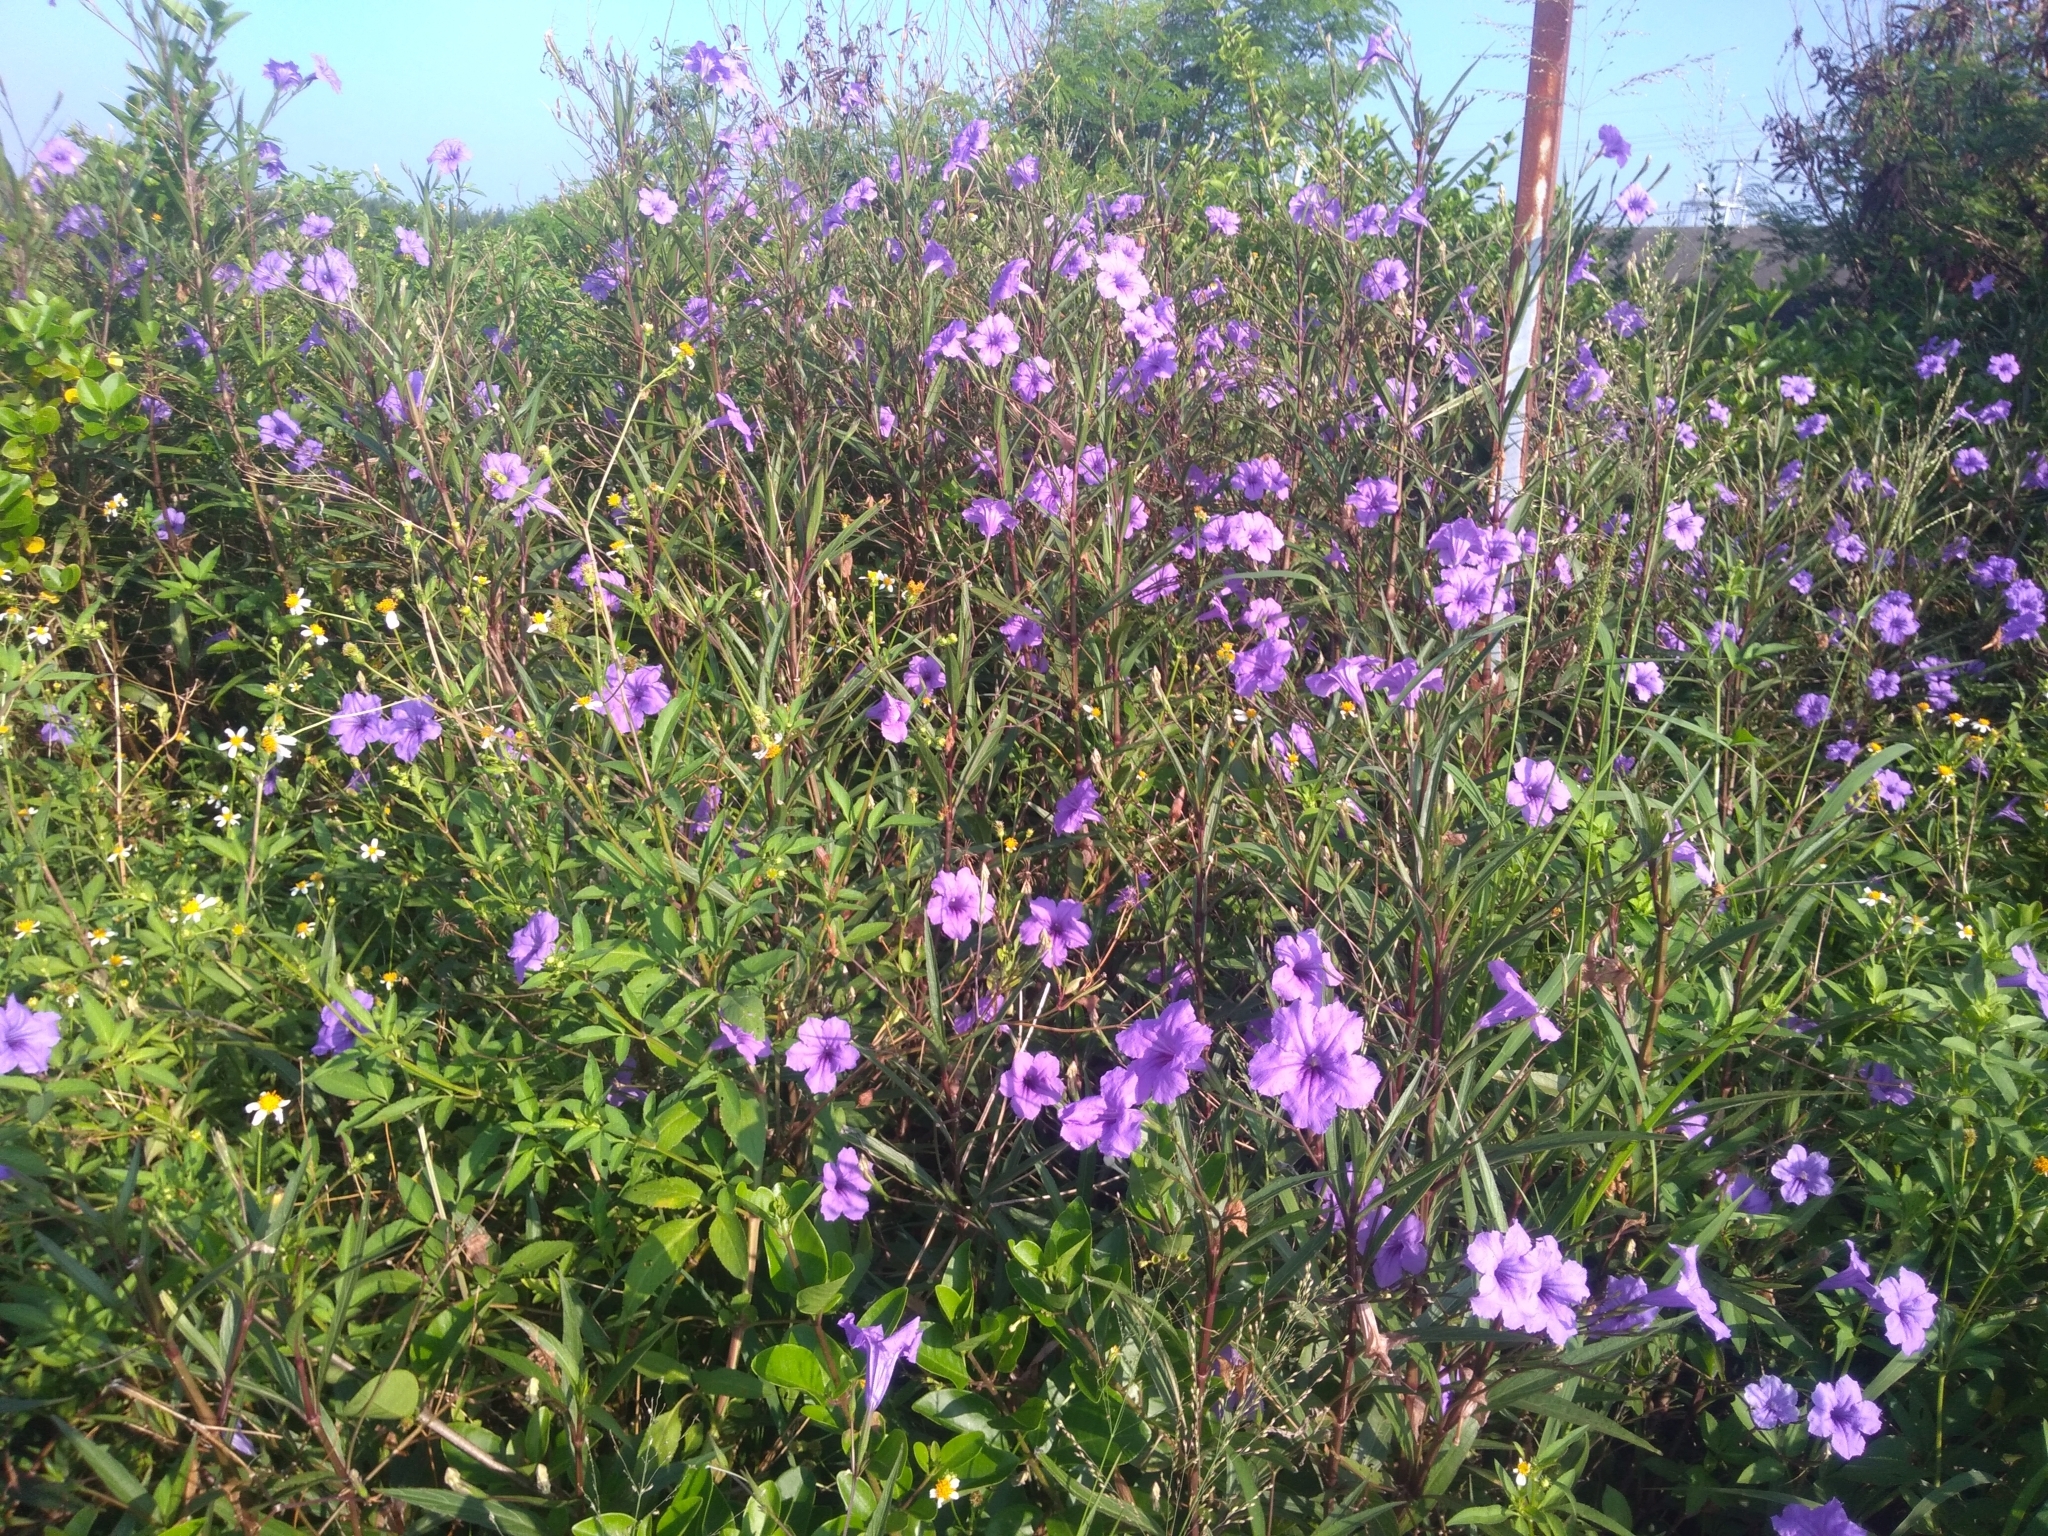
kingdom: Plantae
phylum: Tracheophyta
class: Magnoliopsida
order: Lamiales
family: Acanthaceae
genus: Ruellia
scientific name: Ruellia simplex
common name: Softseed wild petunia
